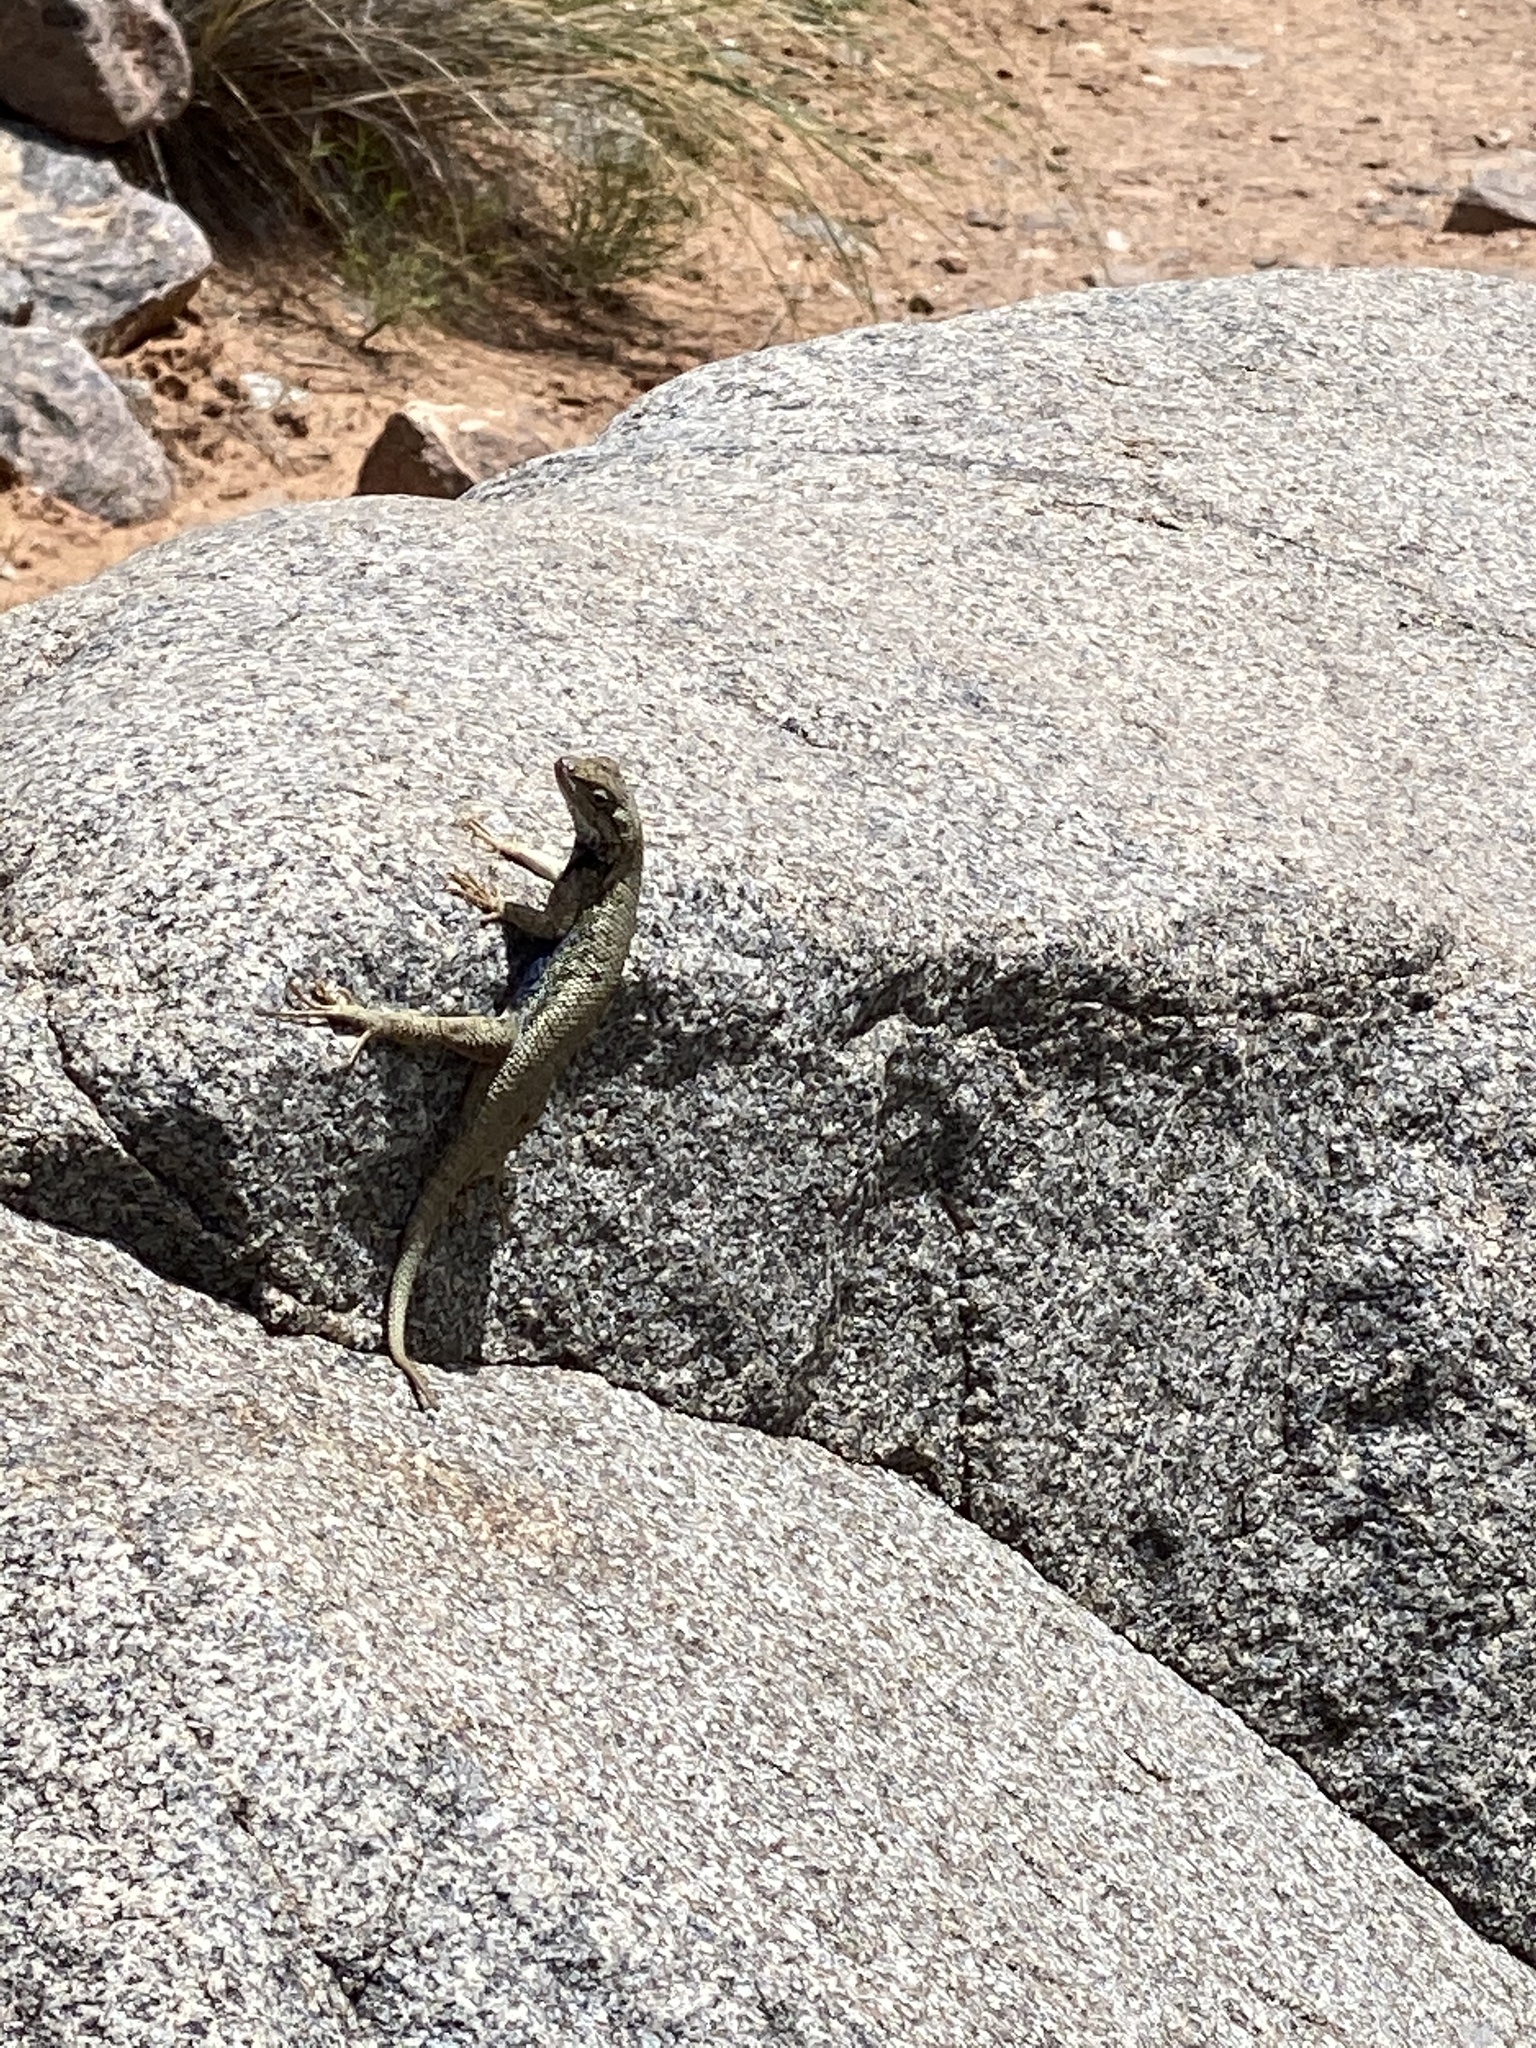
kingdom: Animalia
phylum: Chordata
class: Squamata
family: Phrynosomatidae
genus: Sceloporus
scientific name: Sceloporus tristichus
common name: Plateau fence lizard
